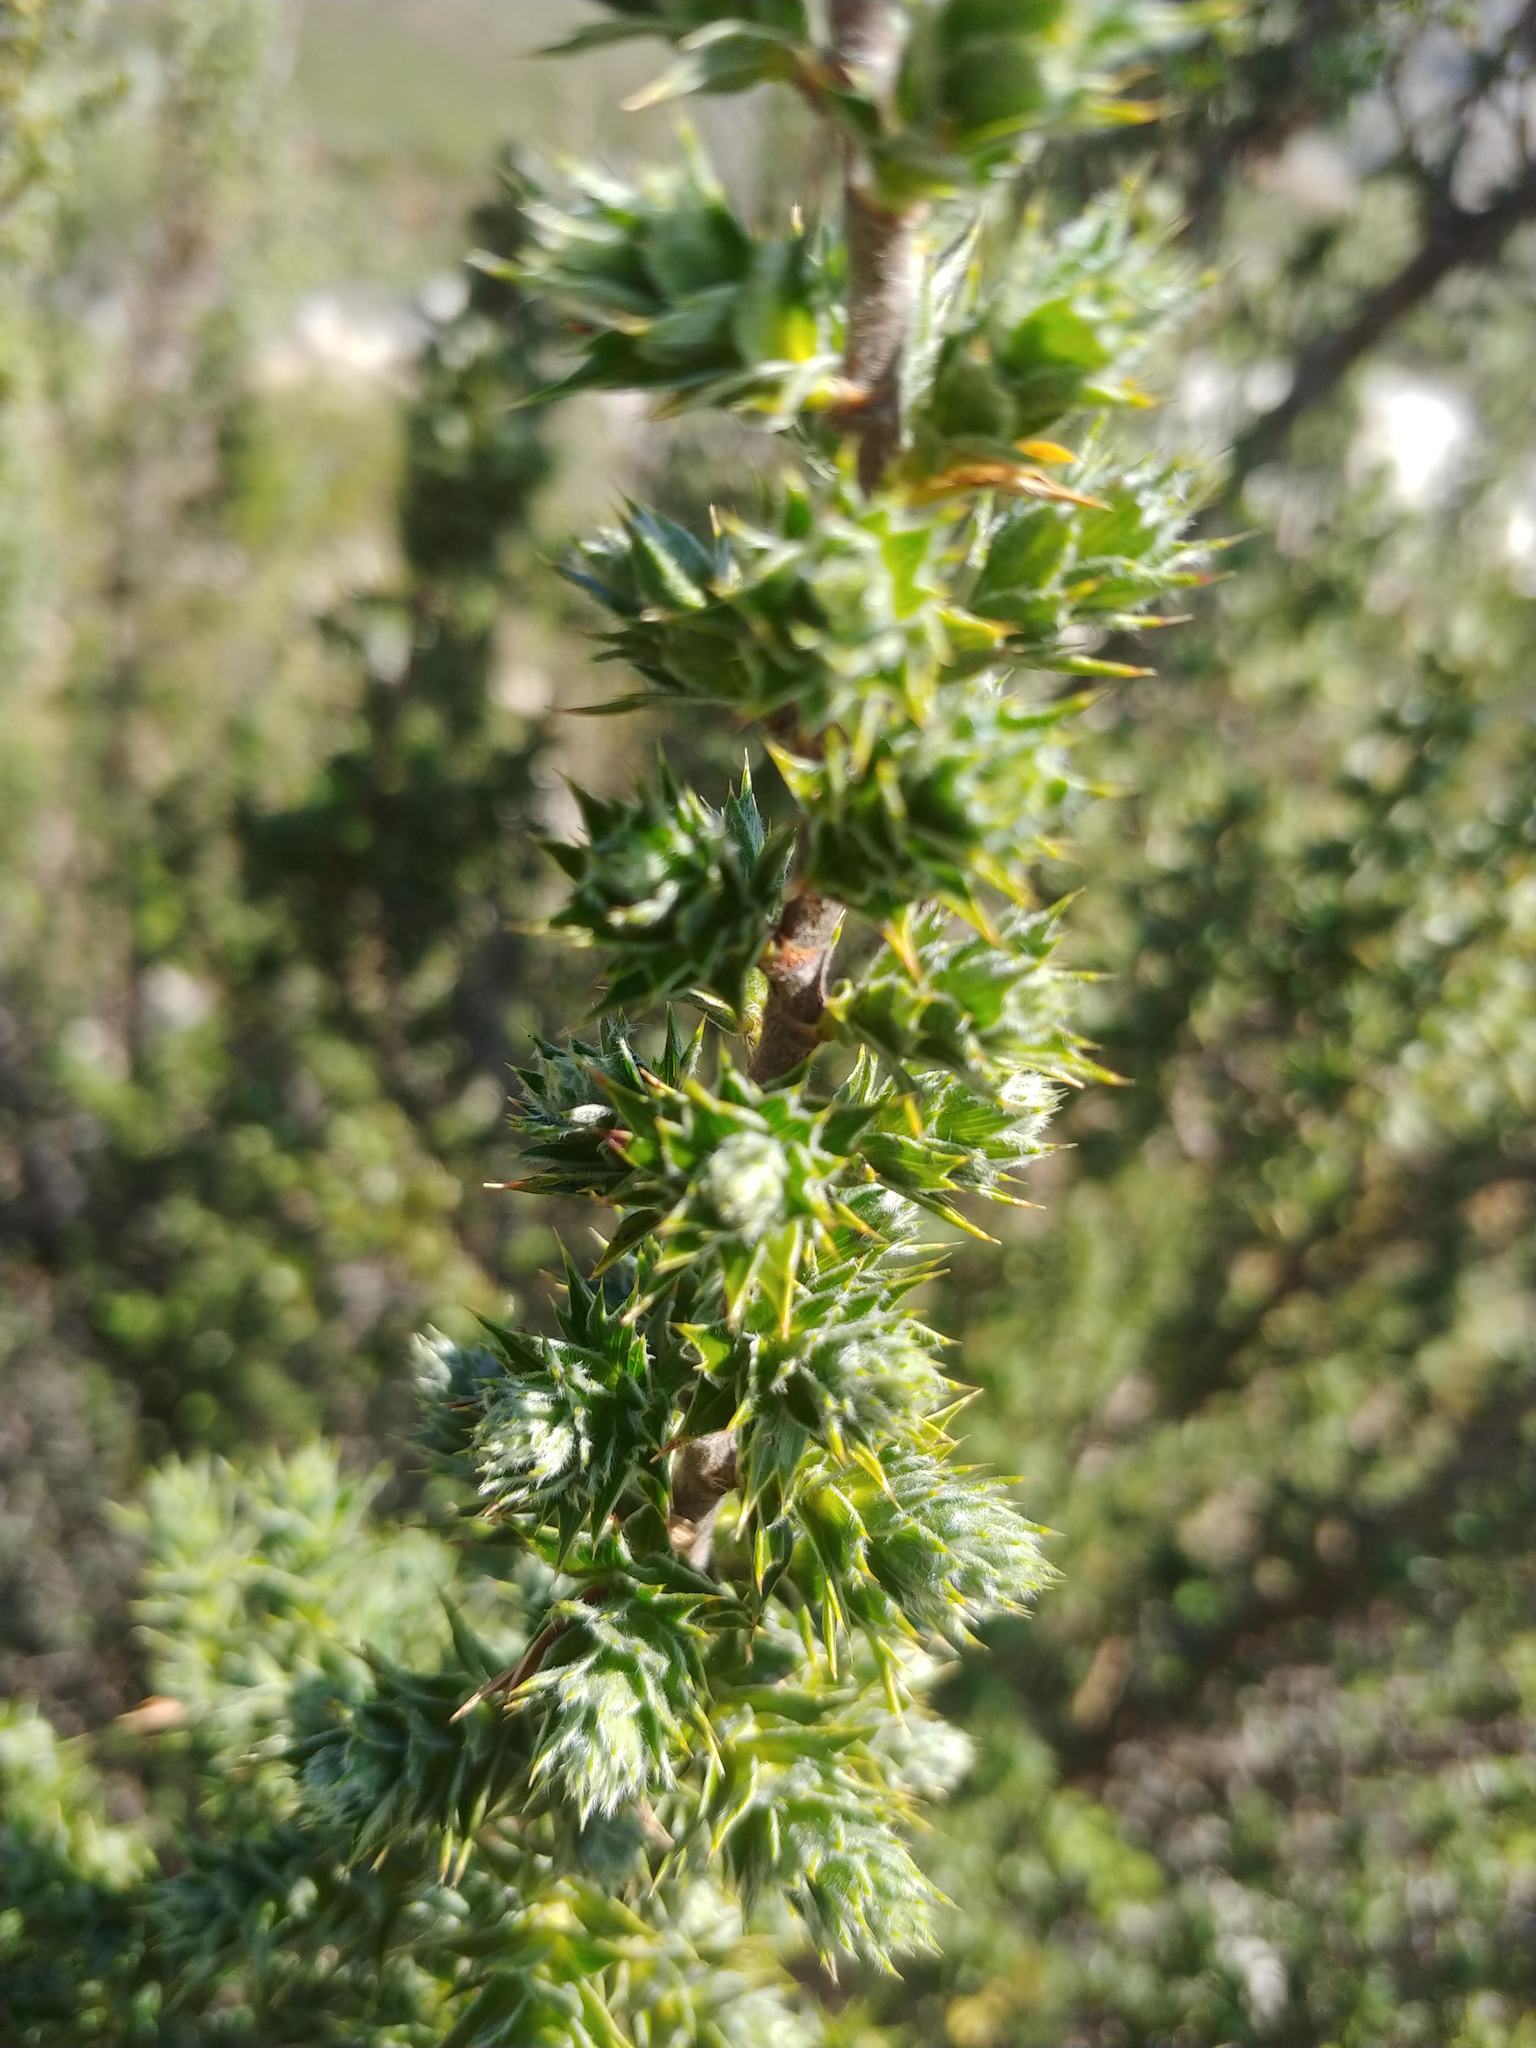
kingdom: Plantae
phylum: Tracheophyta
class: Magnoliopsida
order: Rosales
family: Rosaceae
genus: Cliffortia
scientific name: Cliffortia ruscifolia
